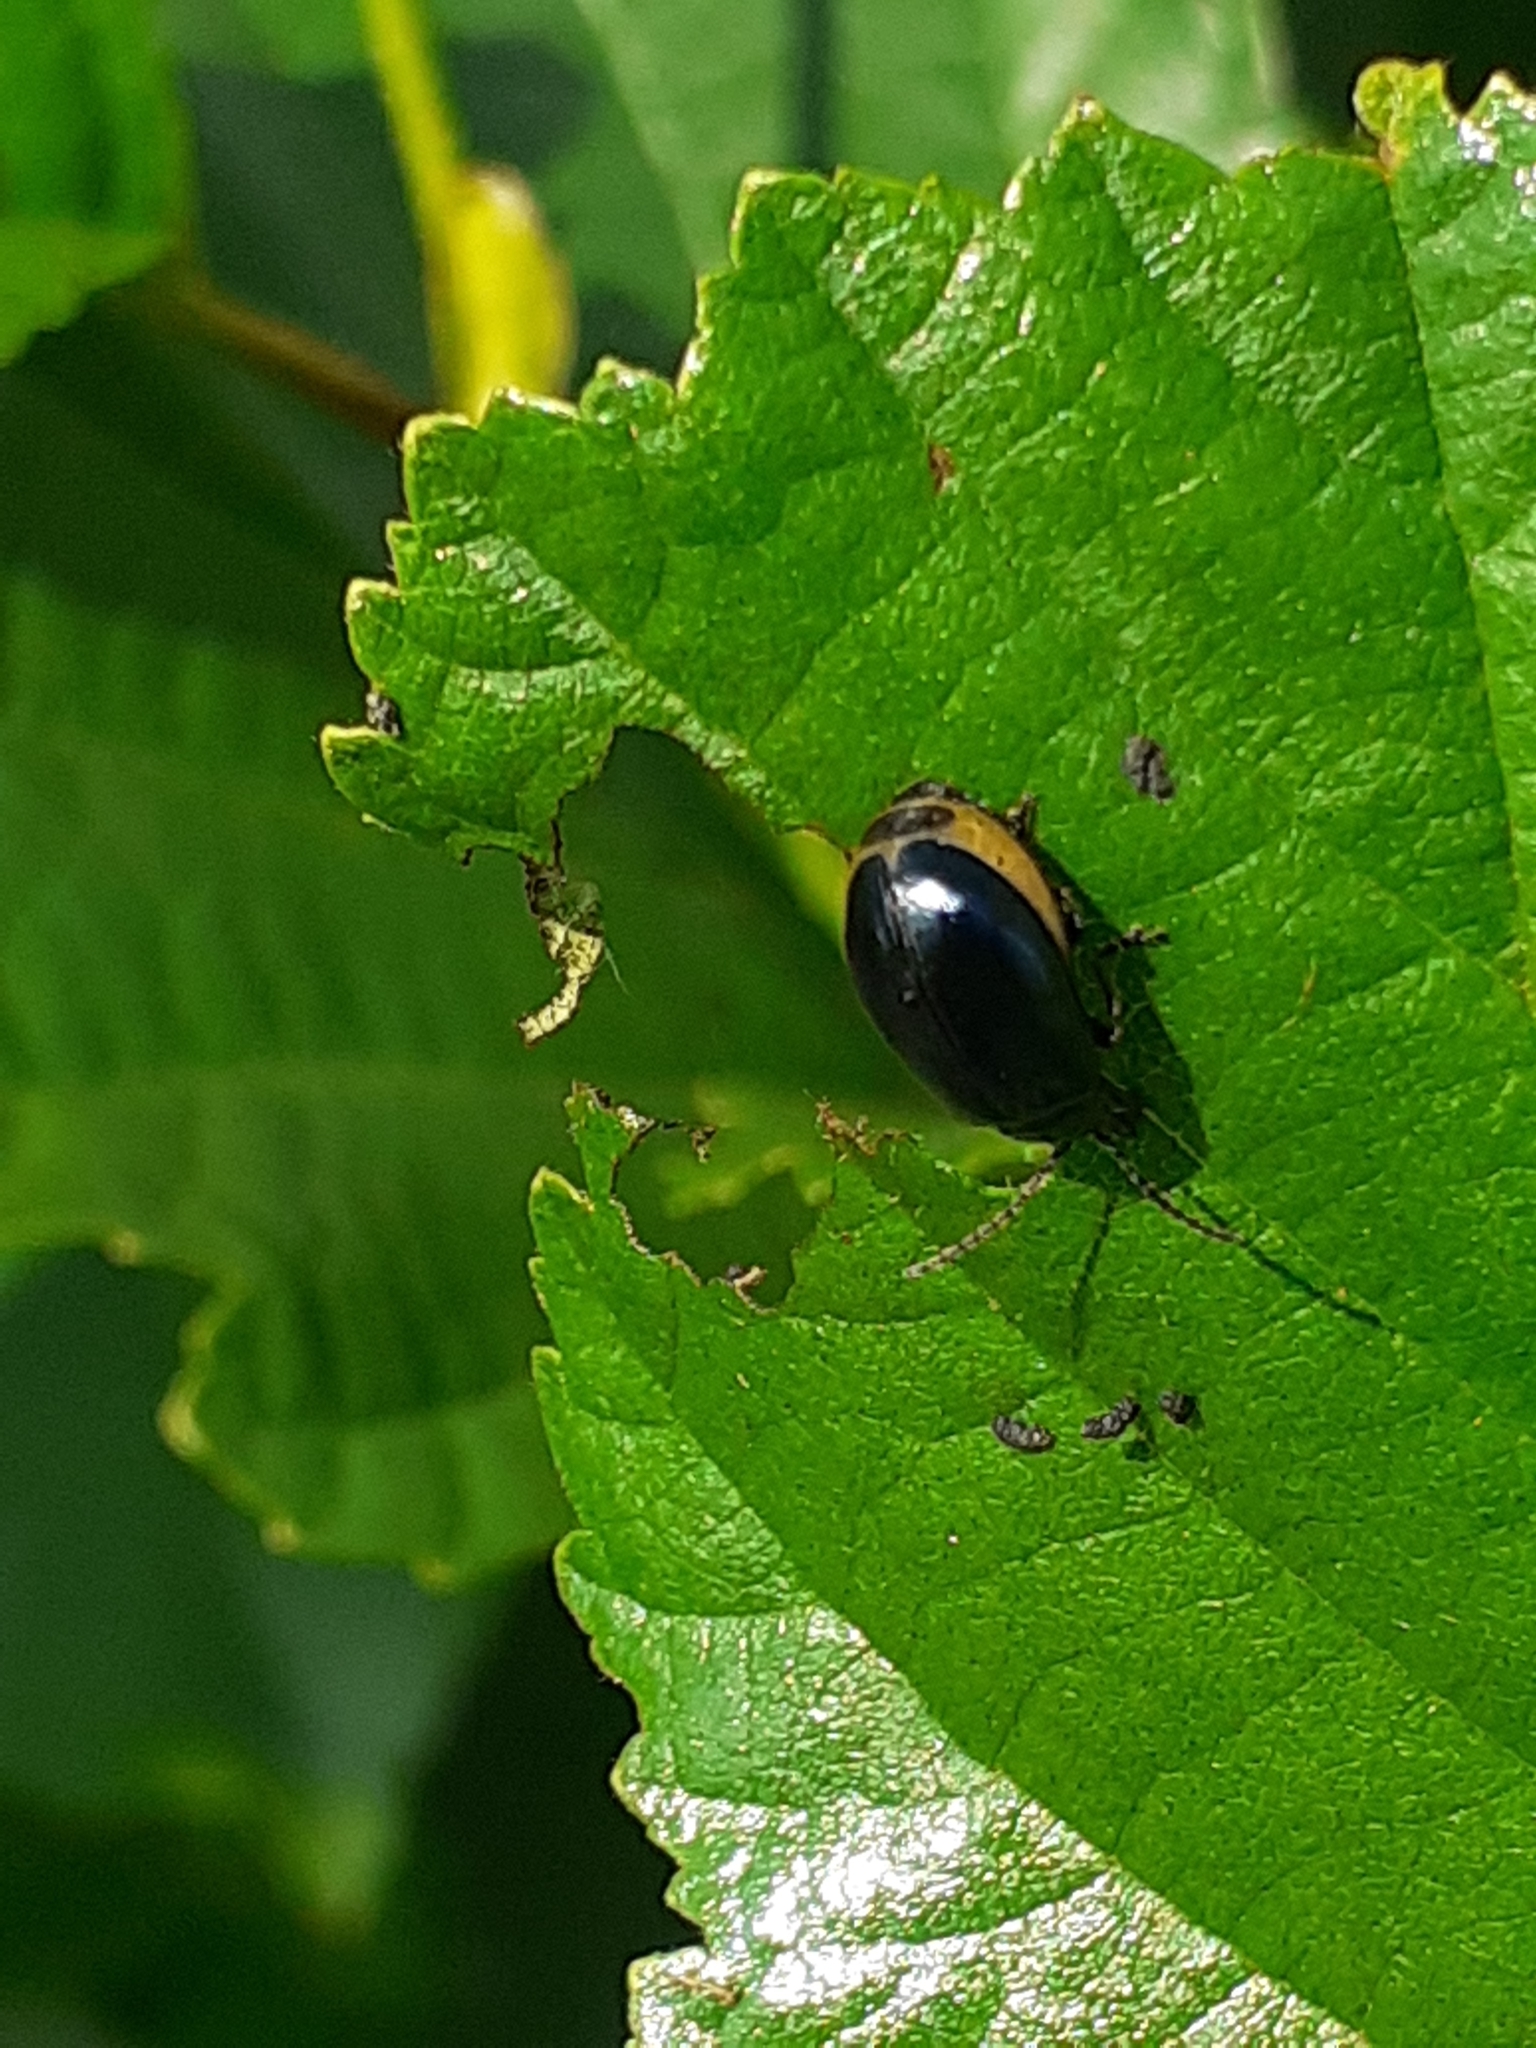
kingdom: Animalia
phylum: Arthropoda
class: Insecta
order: Coleoptera
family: Chrysomelidae
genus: Agelastica
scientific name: Agelastica alni
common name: Alder leaf beetle
